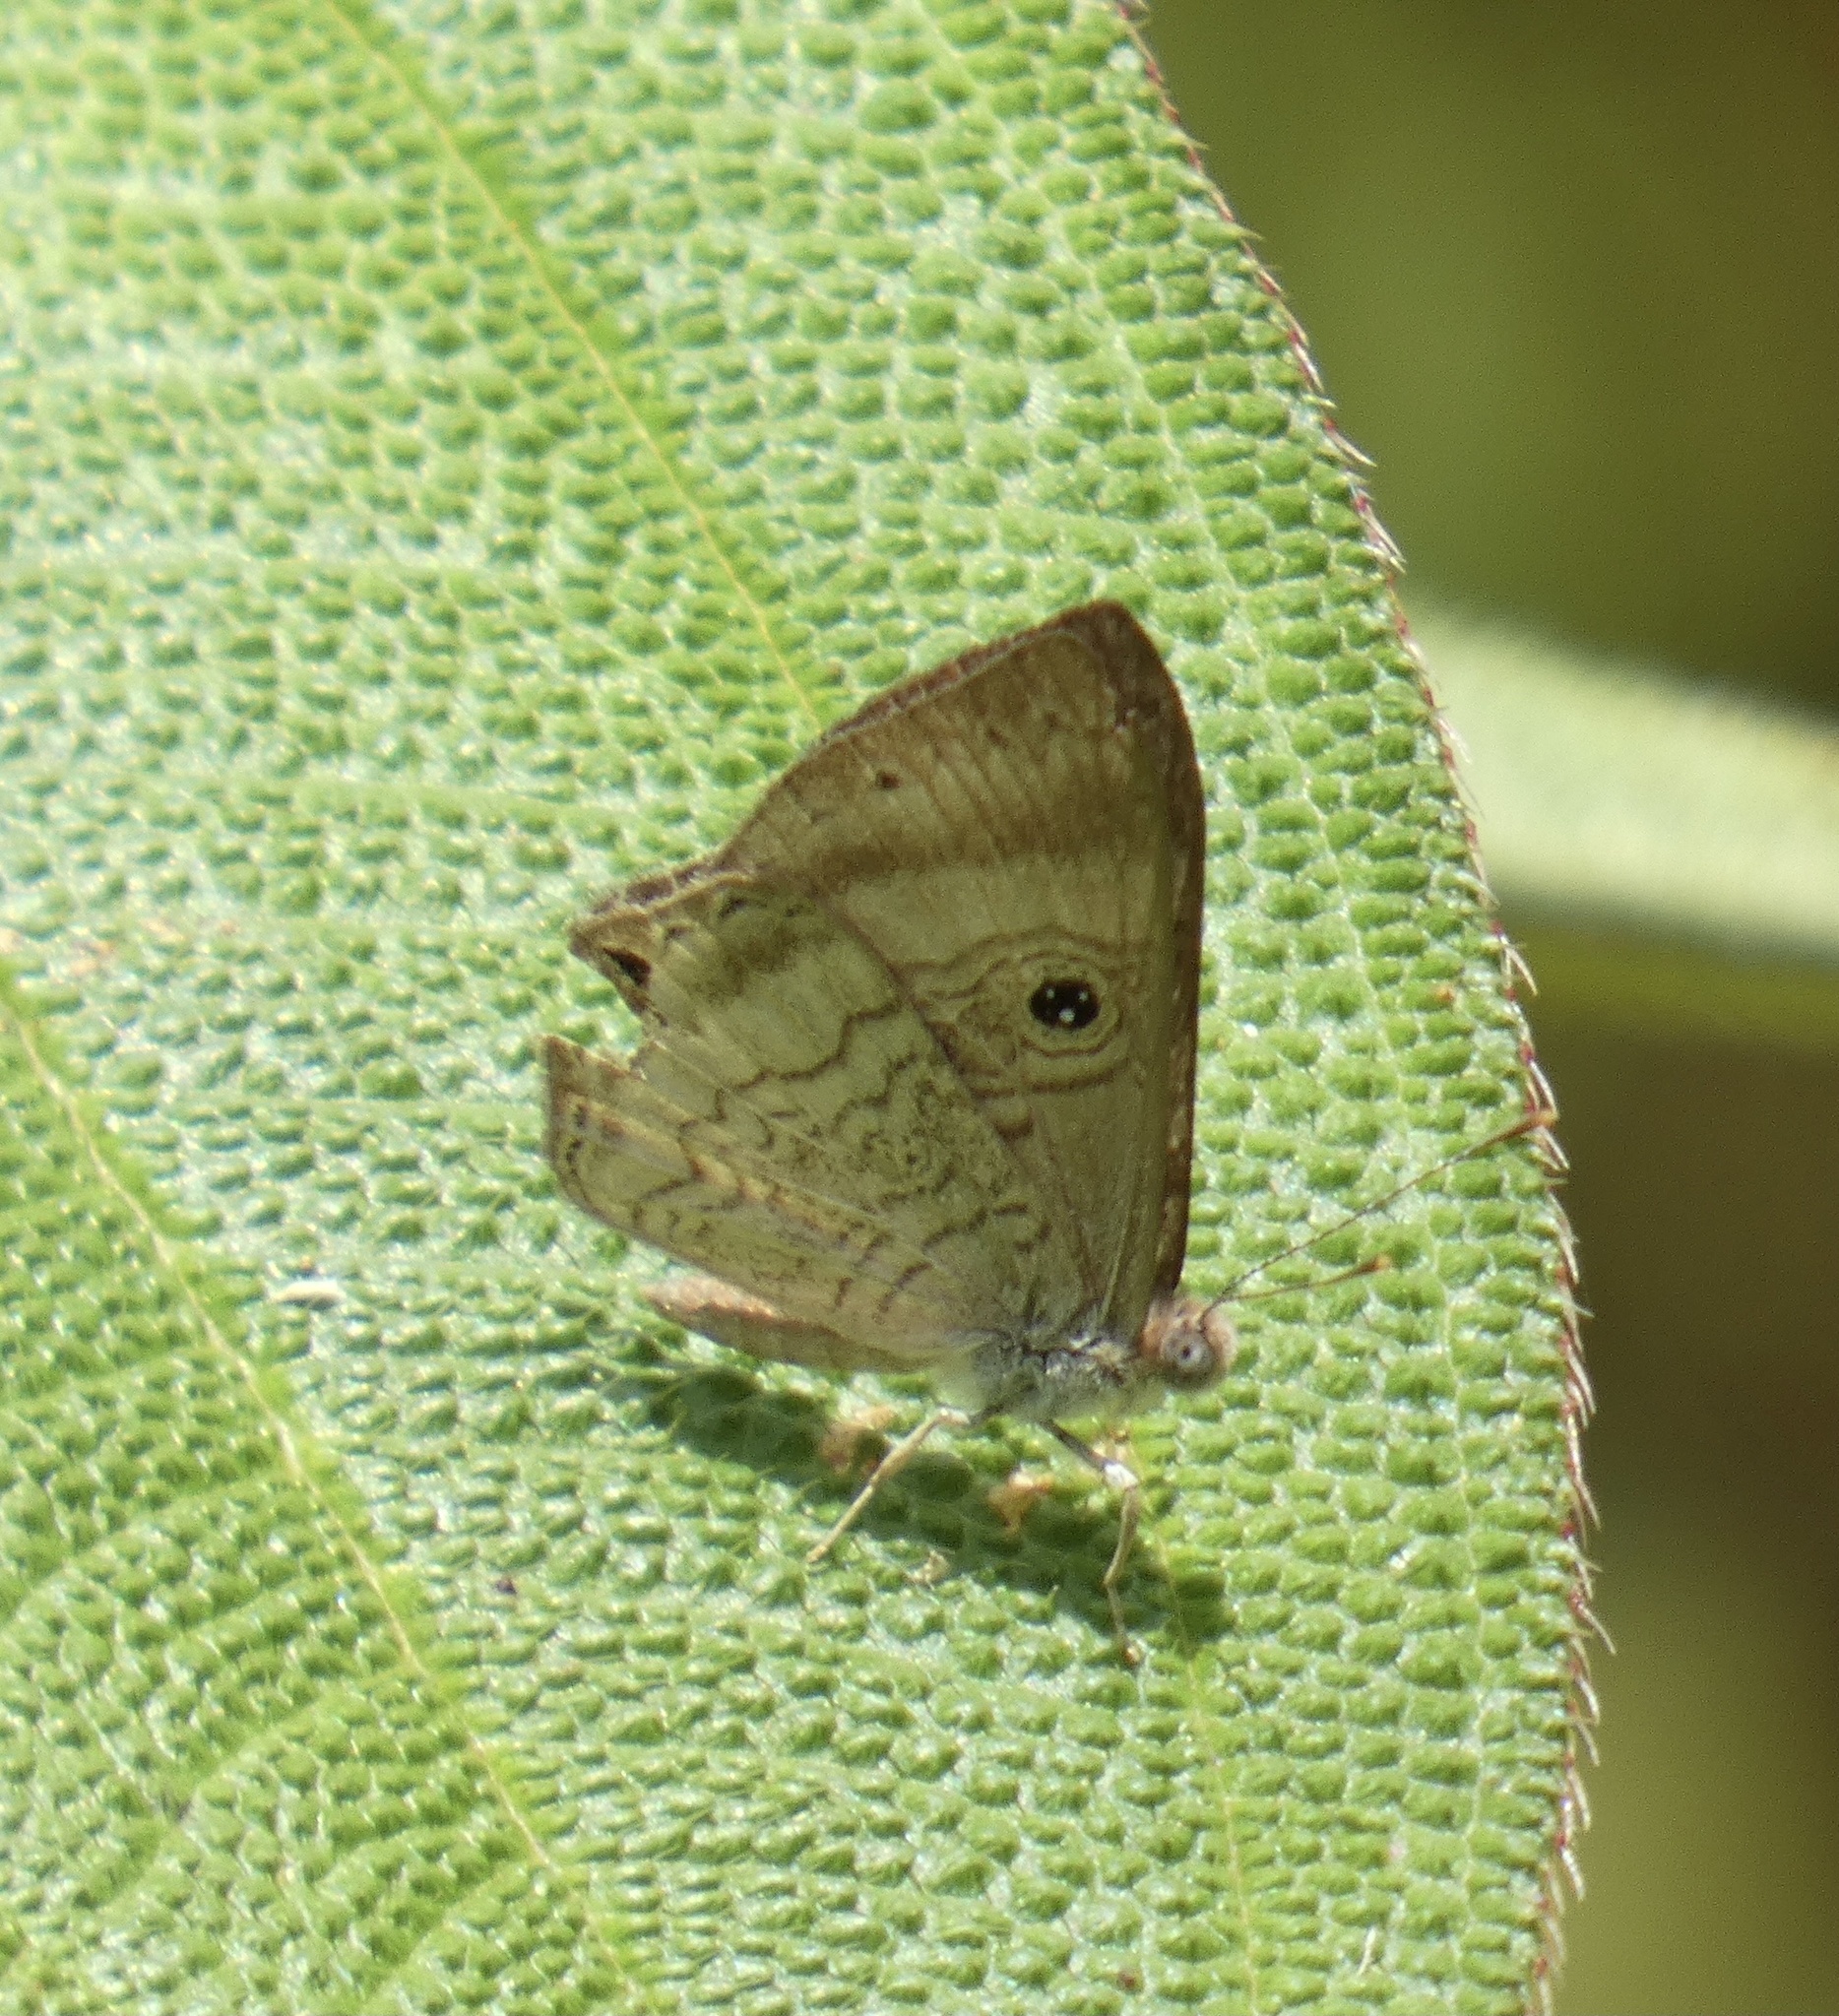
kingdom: Animalia
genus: Mesosemia
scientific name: Mesosemia odice
